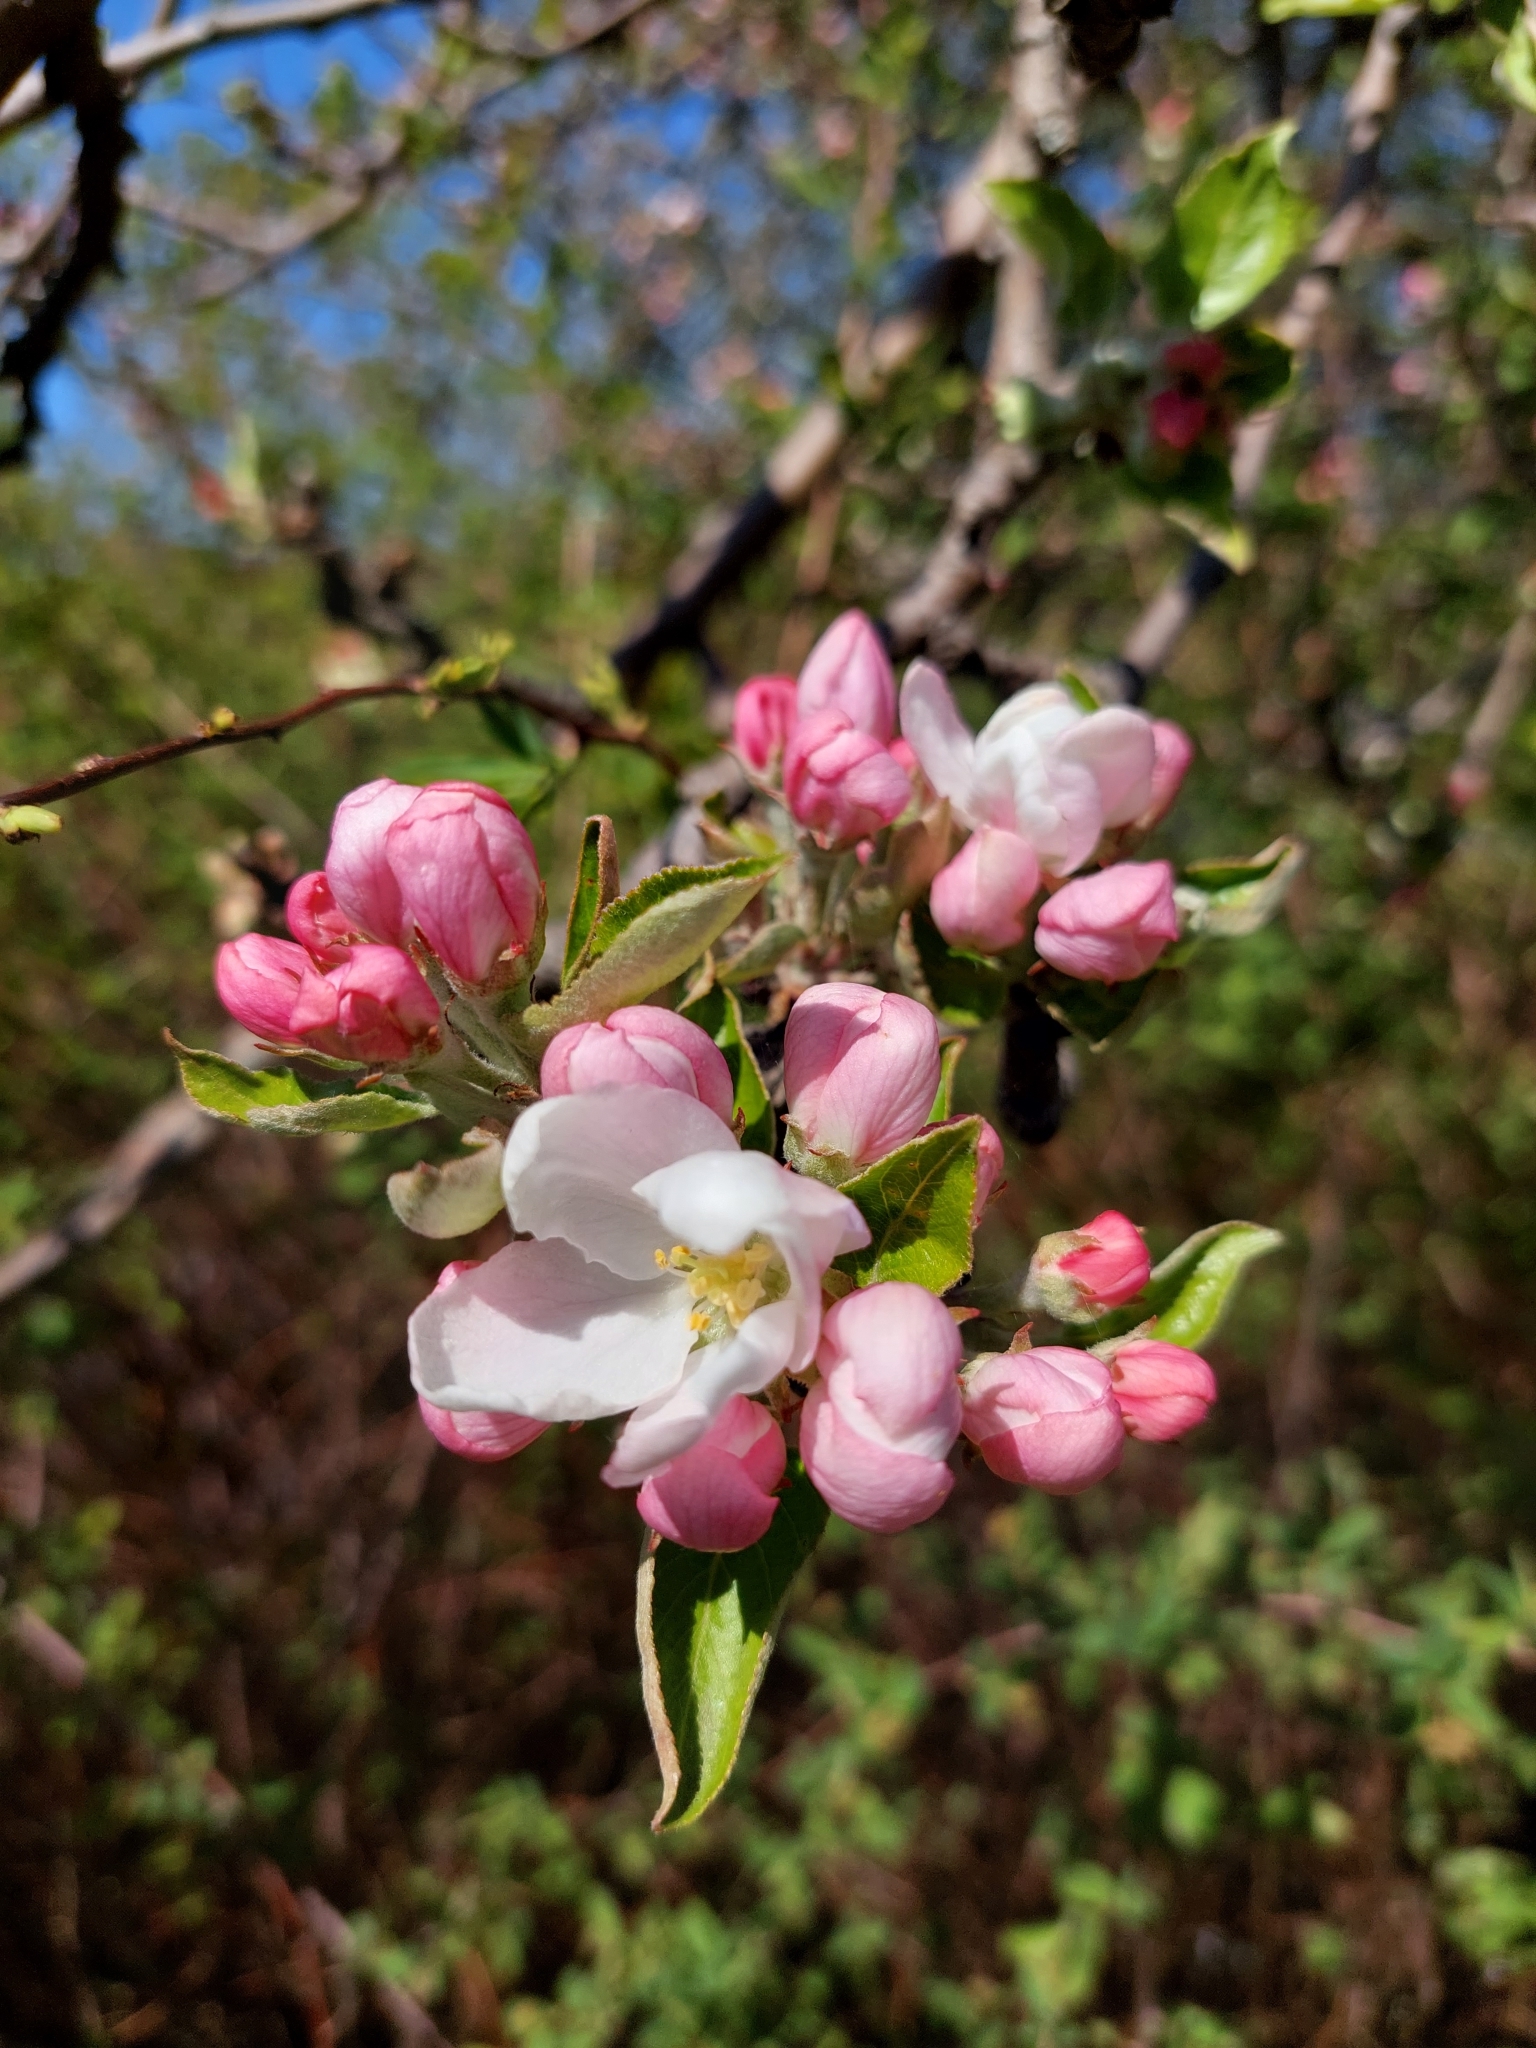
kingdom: Plantae
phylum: Tracheophyta
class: Magnoliopsida
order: Rosales
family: Rosaceae
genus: Malus
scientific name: Malus domestica
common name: Apple
